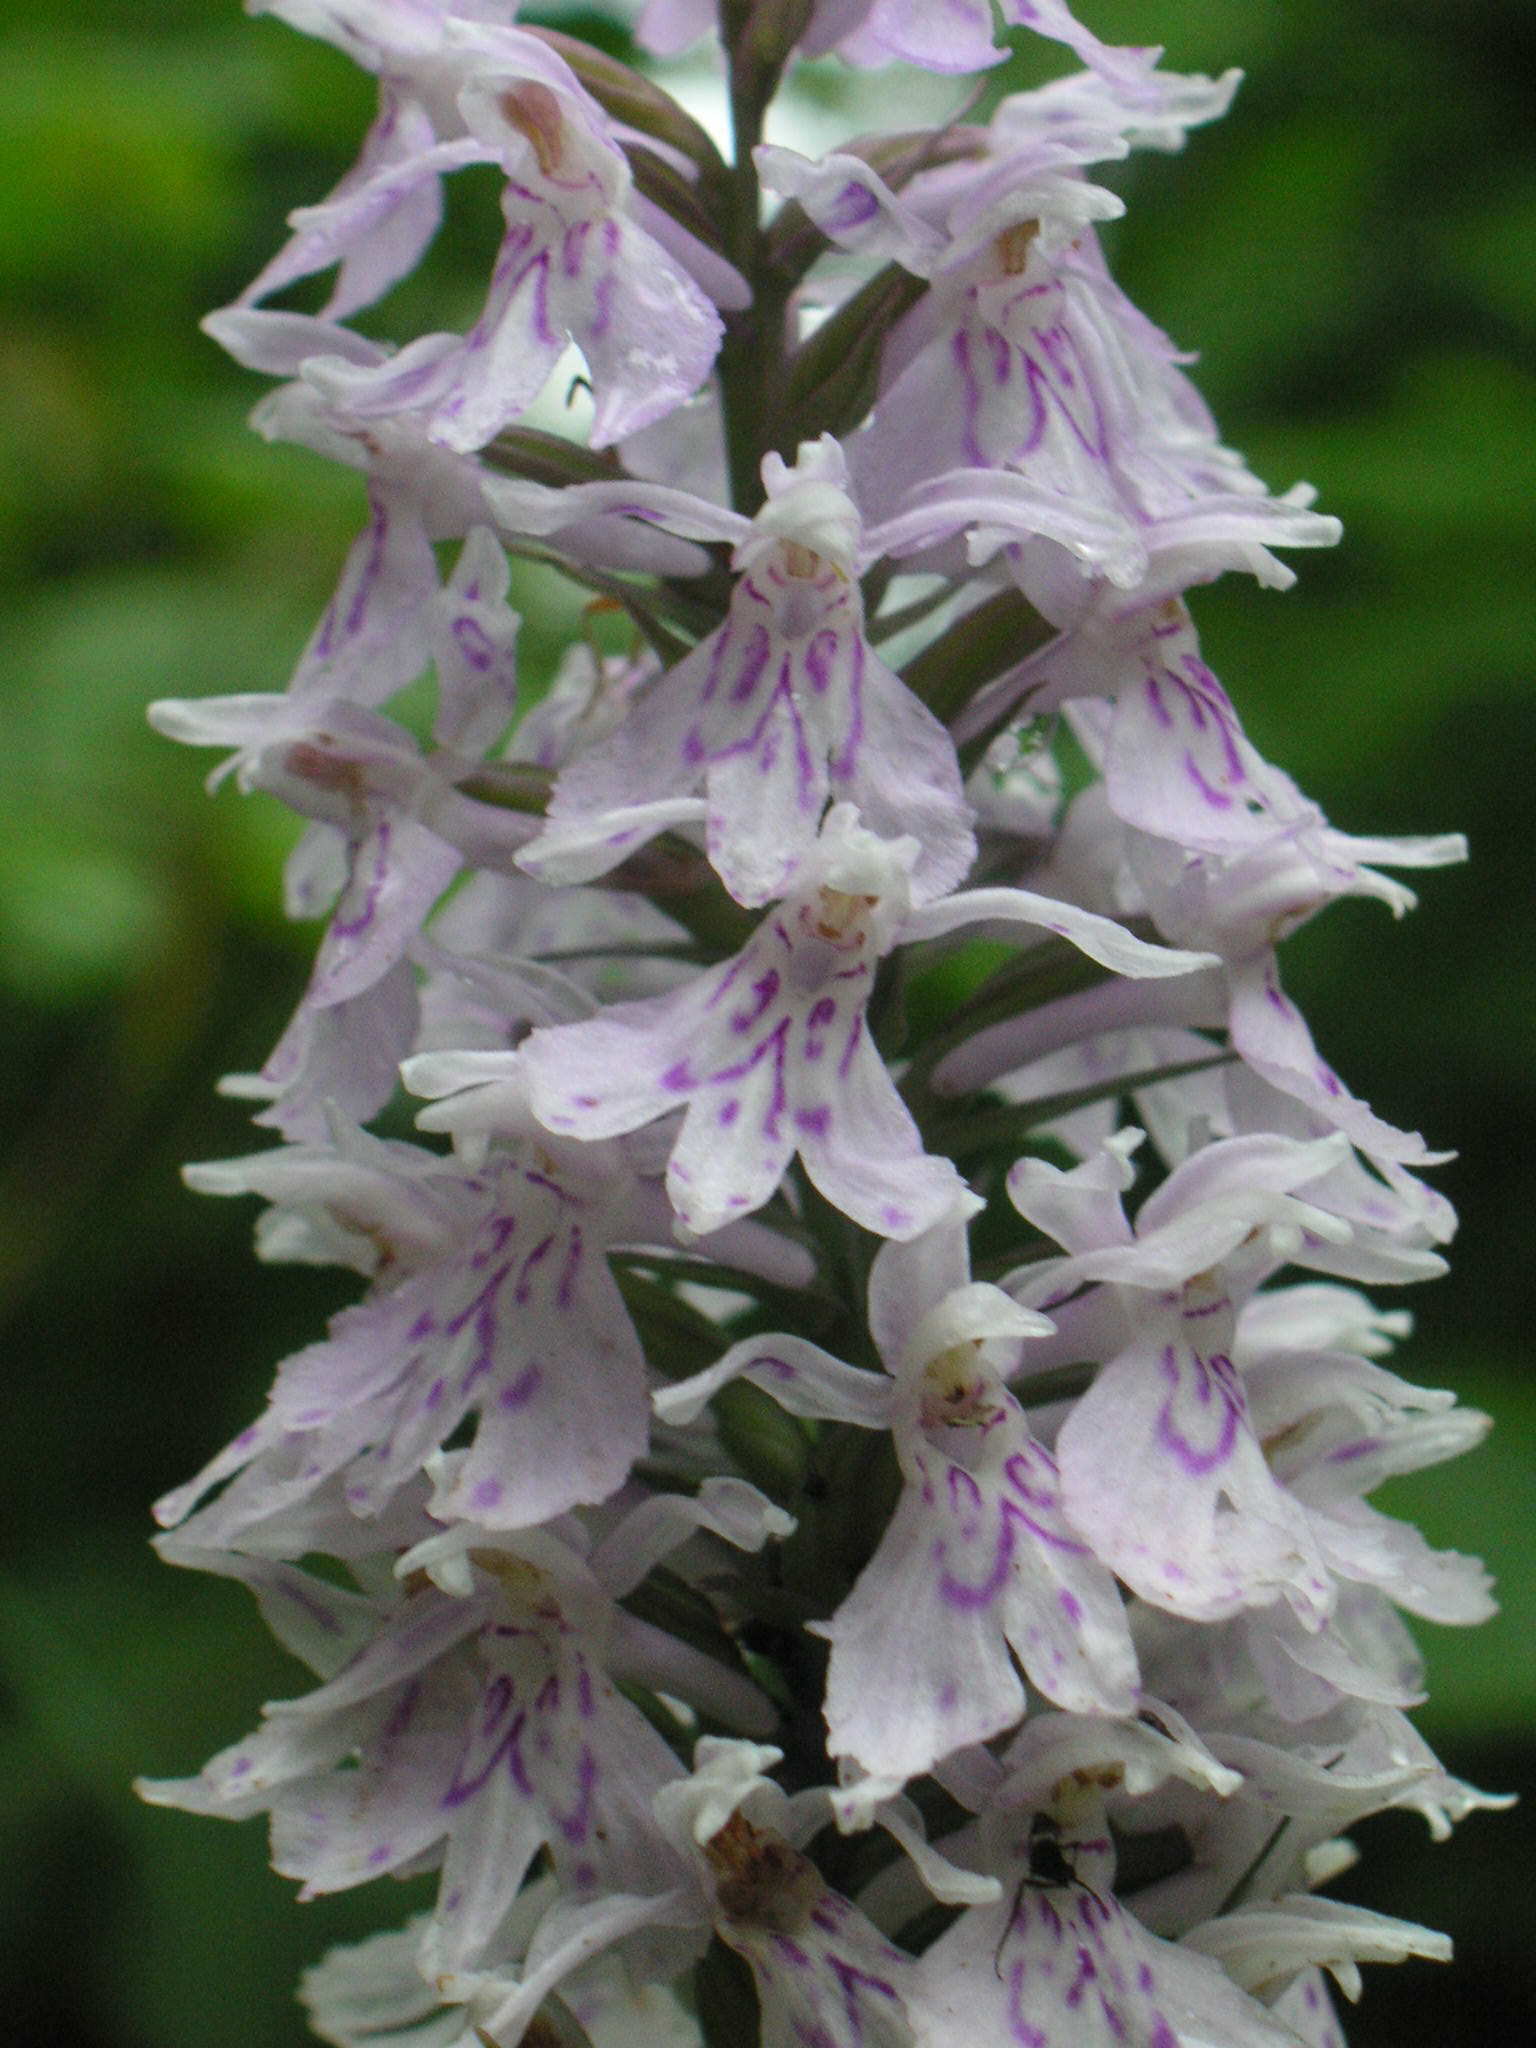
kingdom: Plantae
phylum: Tracheophyta
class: Liliopsida
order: Asparagales
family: Orchidaceae
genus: Dactylorhiza
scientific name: Dactylorhiza maculata
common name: Heath spotted-orchid
